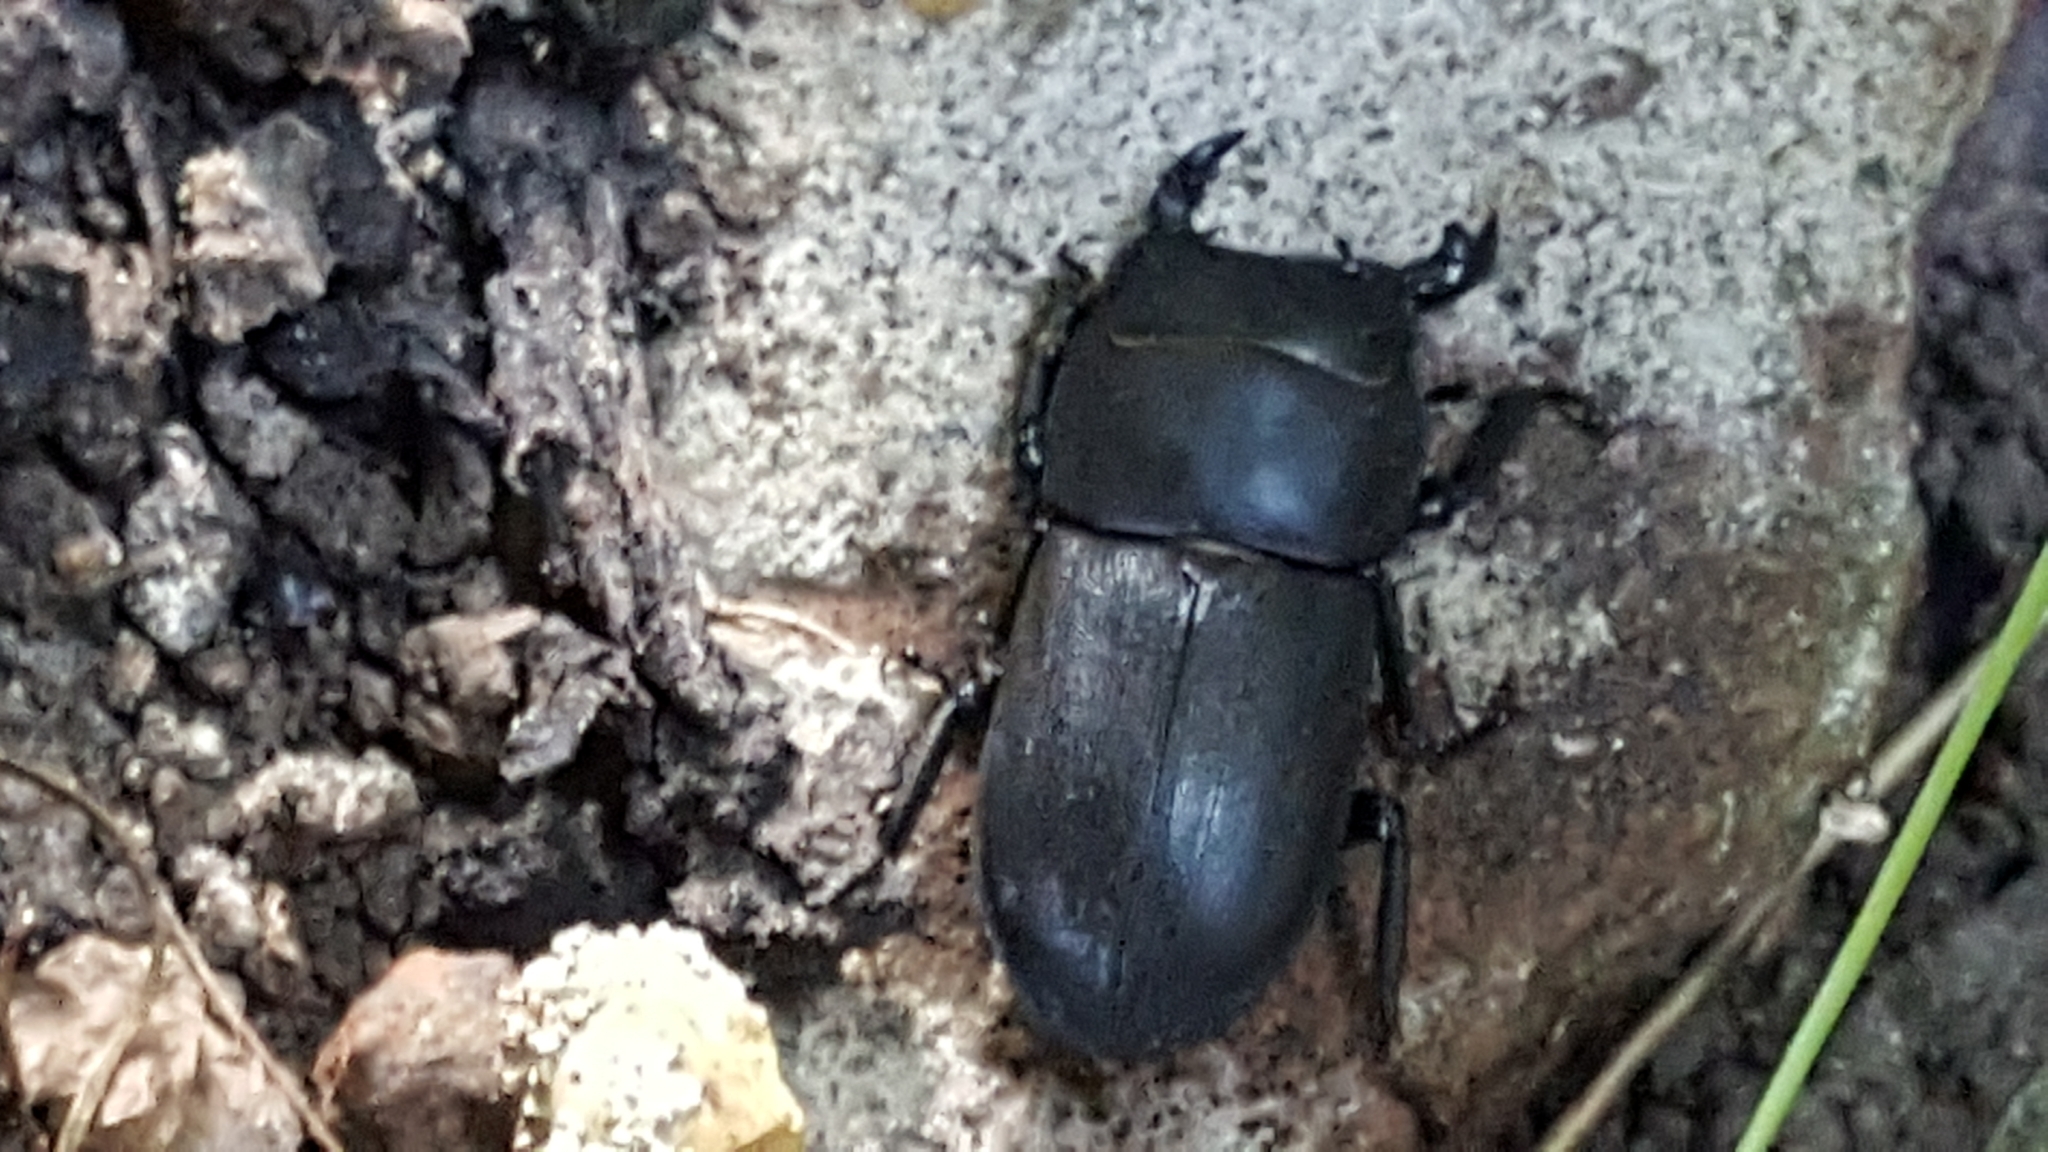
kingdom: Animalia
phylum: Arthropoda
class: Insecta
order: Coleoptera
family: Lucanidae
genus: Dorcus
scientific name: Dorcus parallelipipedus
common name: Lesser stag beetle
